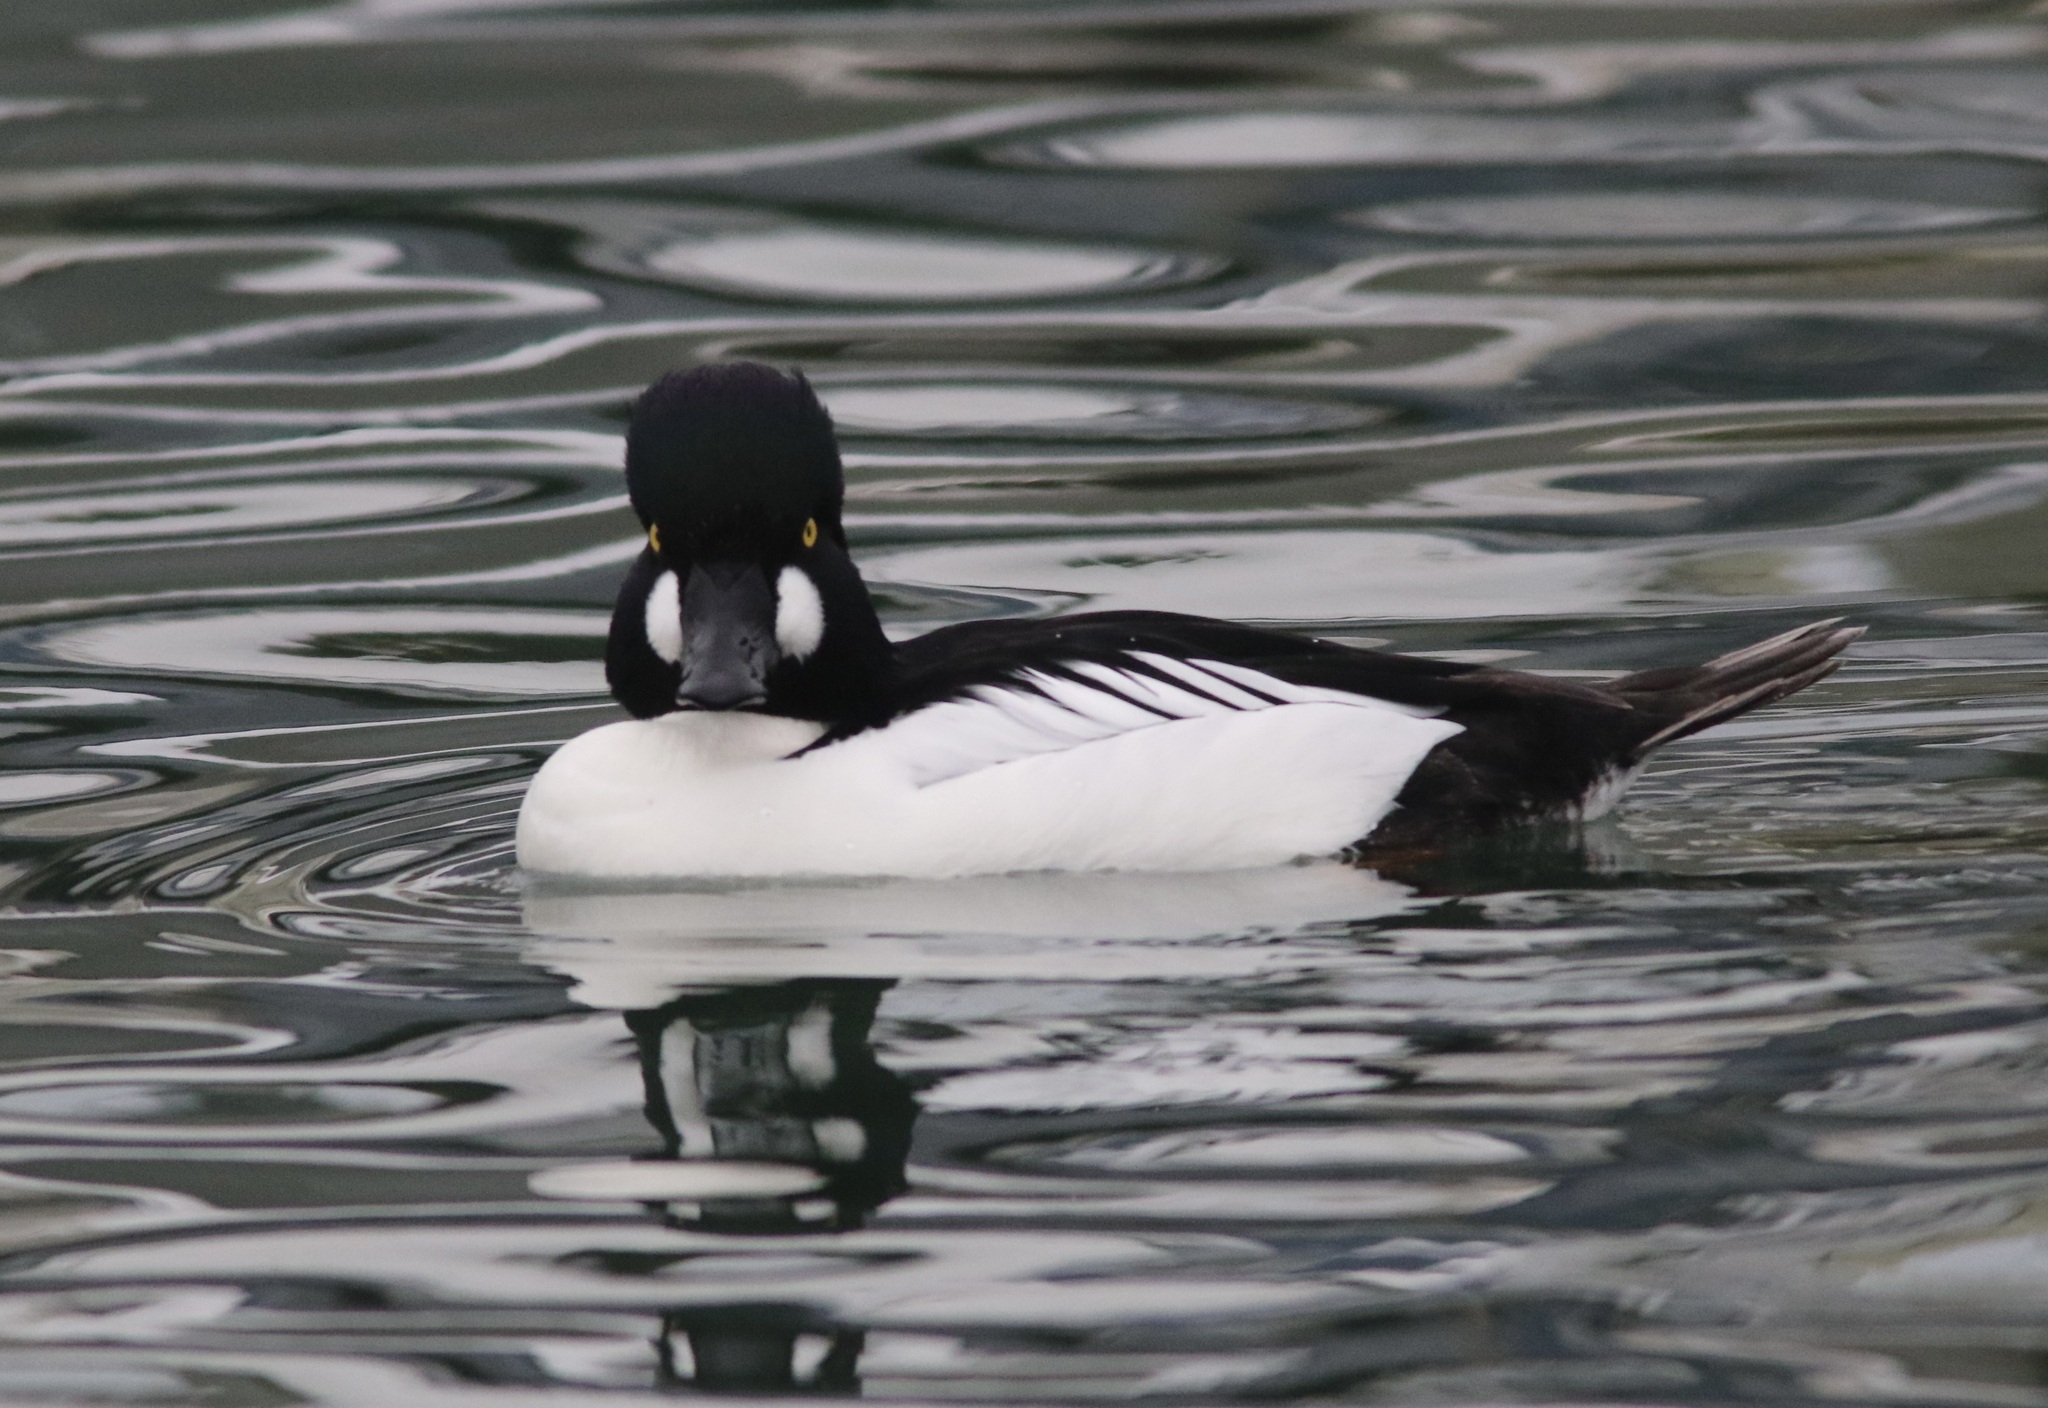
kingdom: Animalia
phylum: Chordata
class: Aves
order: Anseriformes
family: Anatidae
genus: Bucephala
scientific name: Bucephala clangula
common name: Common goldeneye
